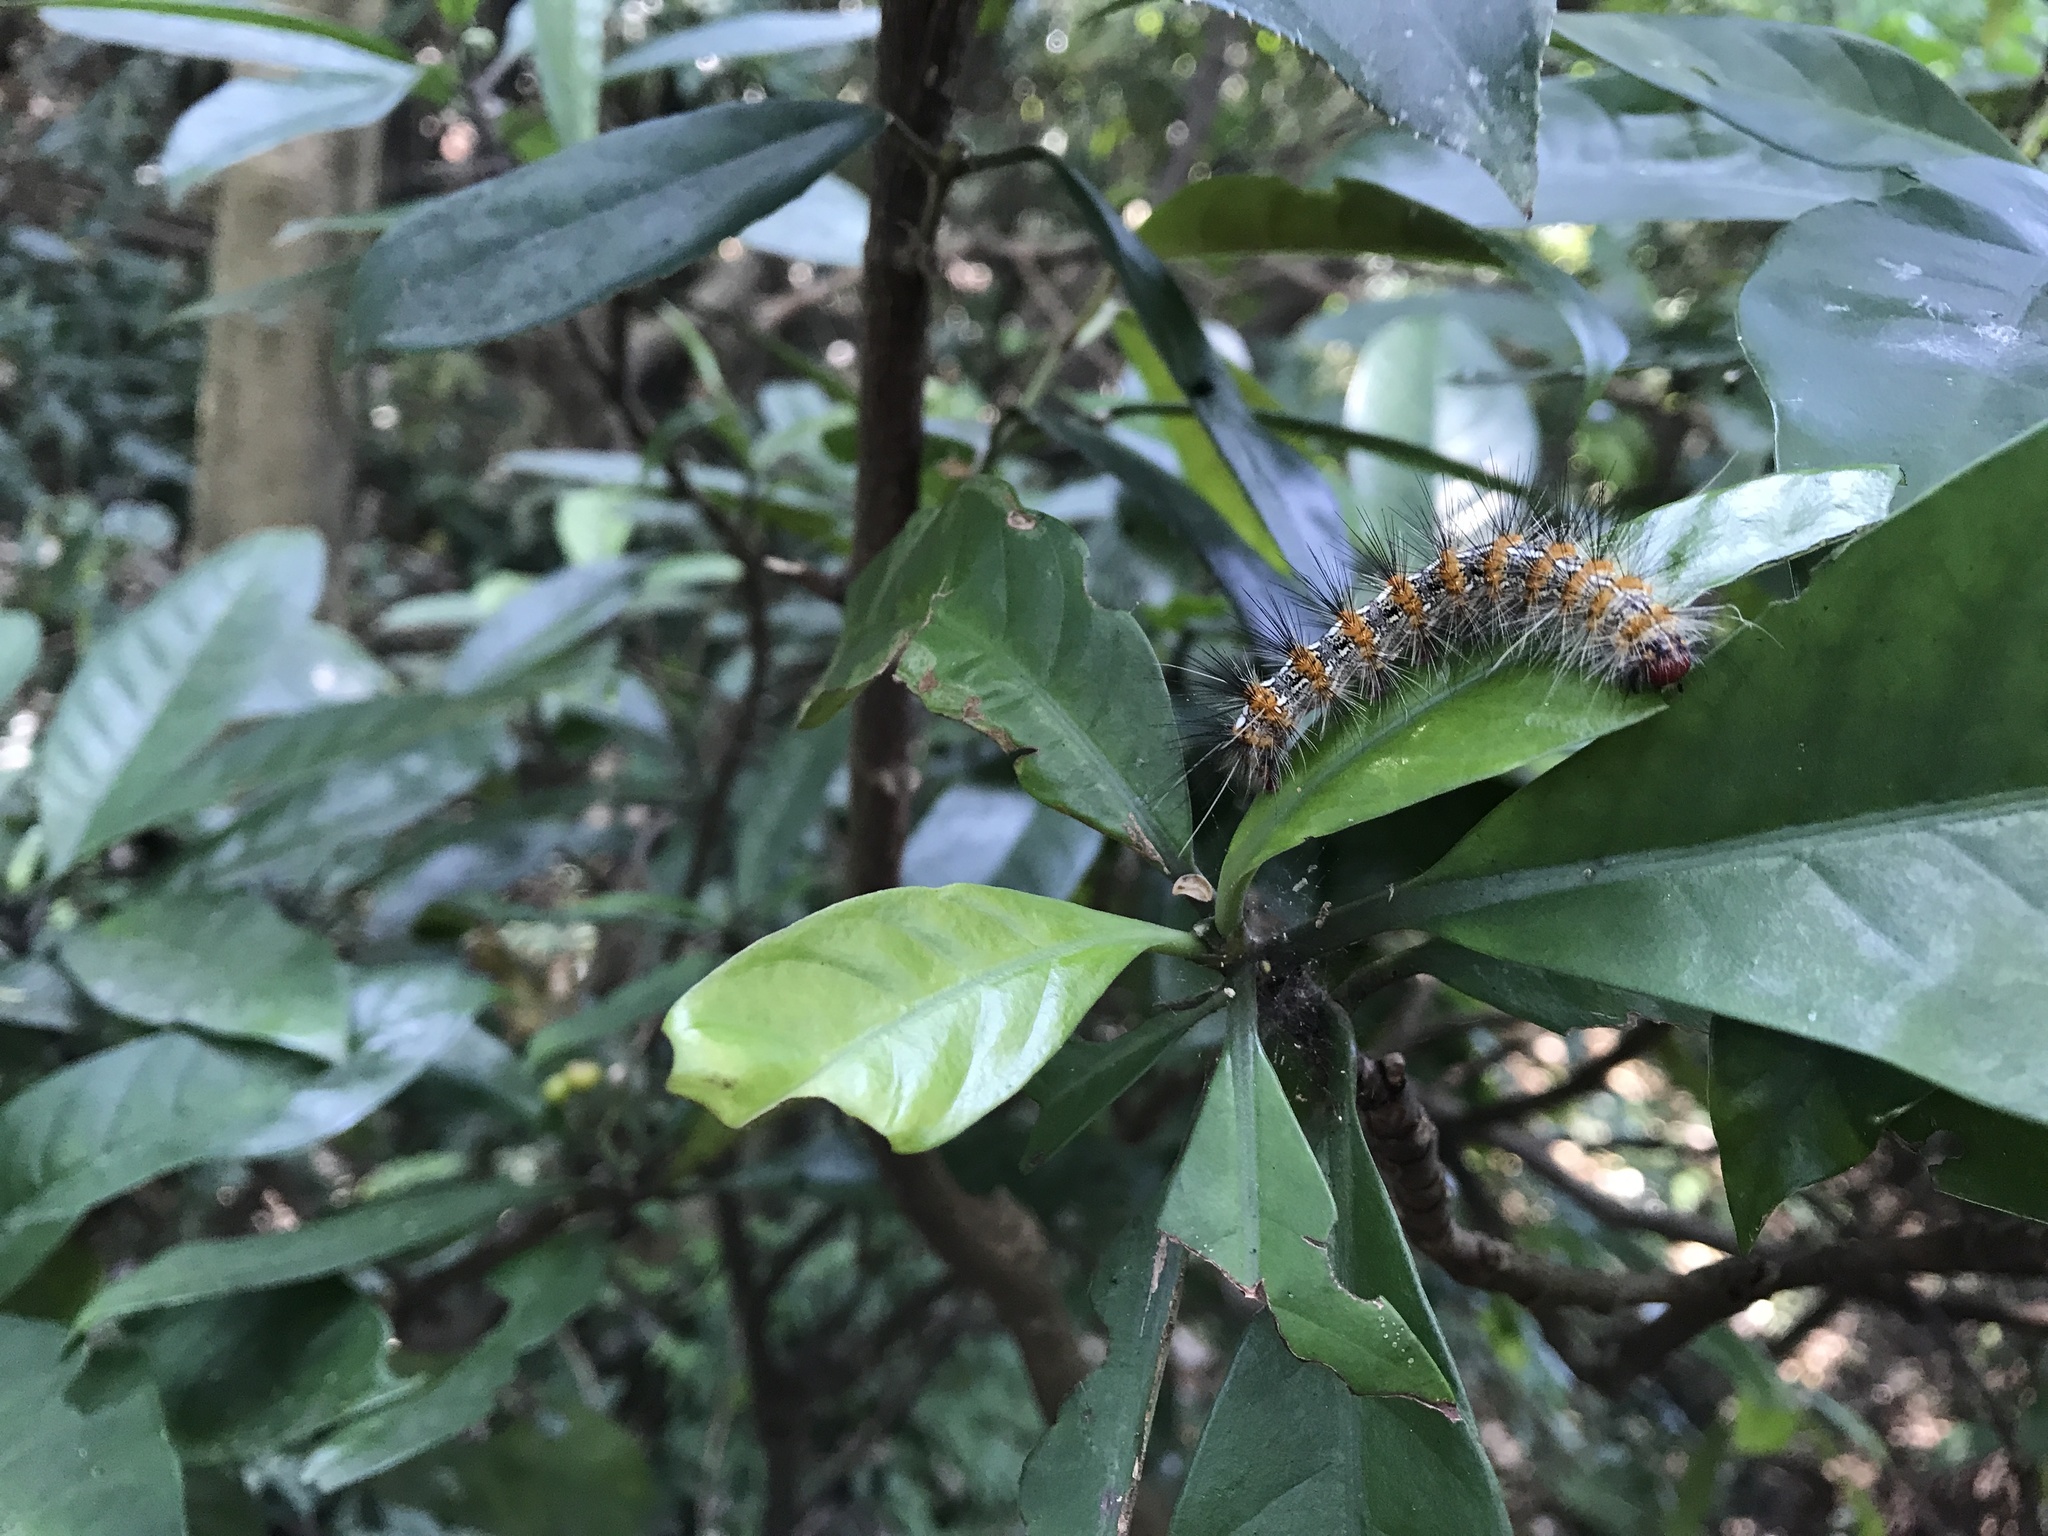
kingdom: Animalia
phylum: Arthropoda
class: Insecta
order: Lepidoptera
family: Erebidae
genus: Lemyra
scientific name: Lemyra imparilis
